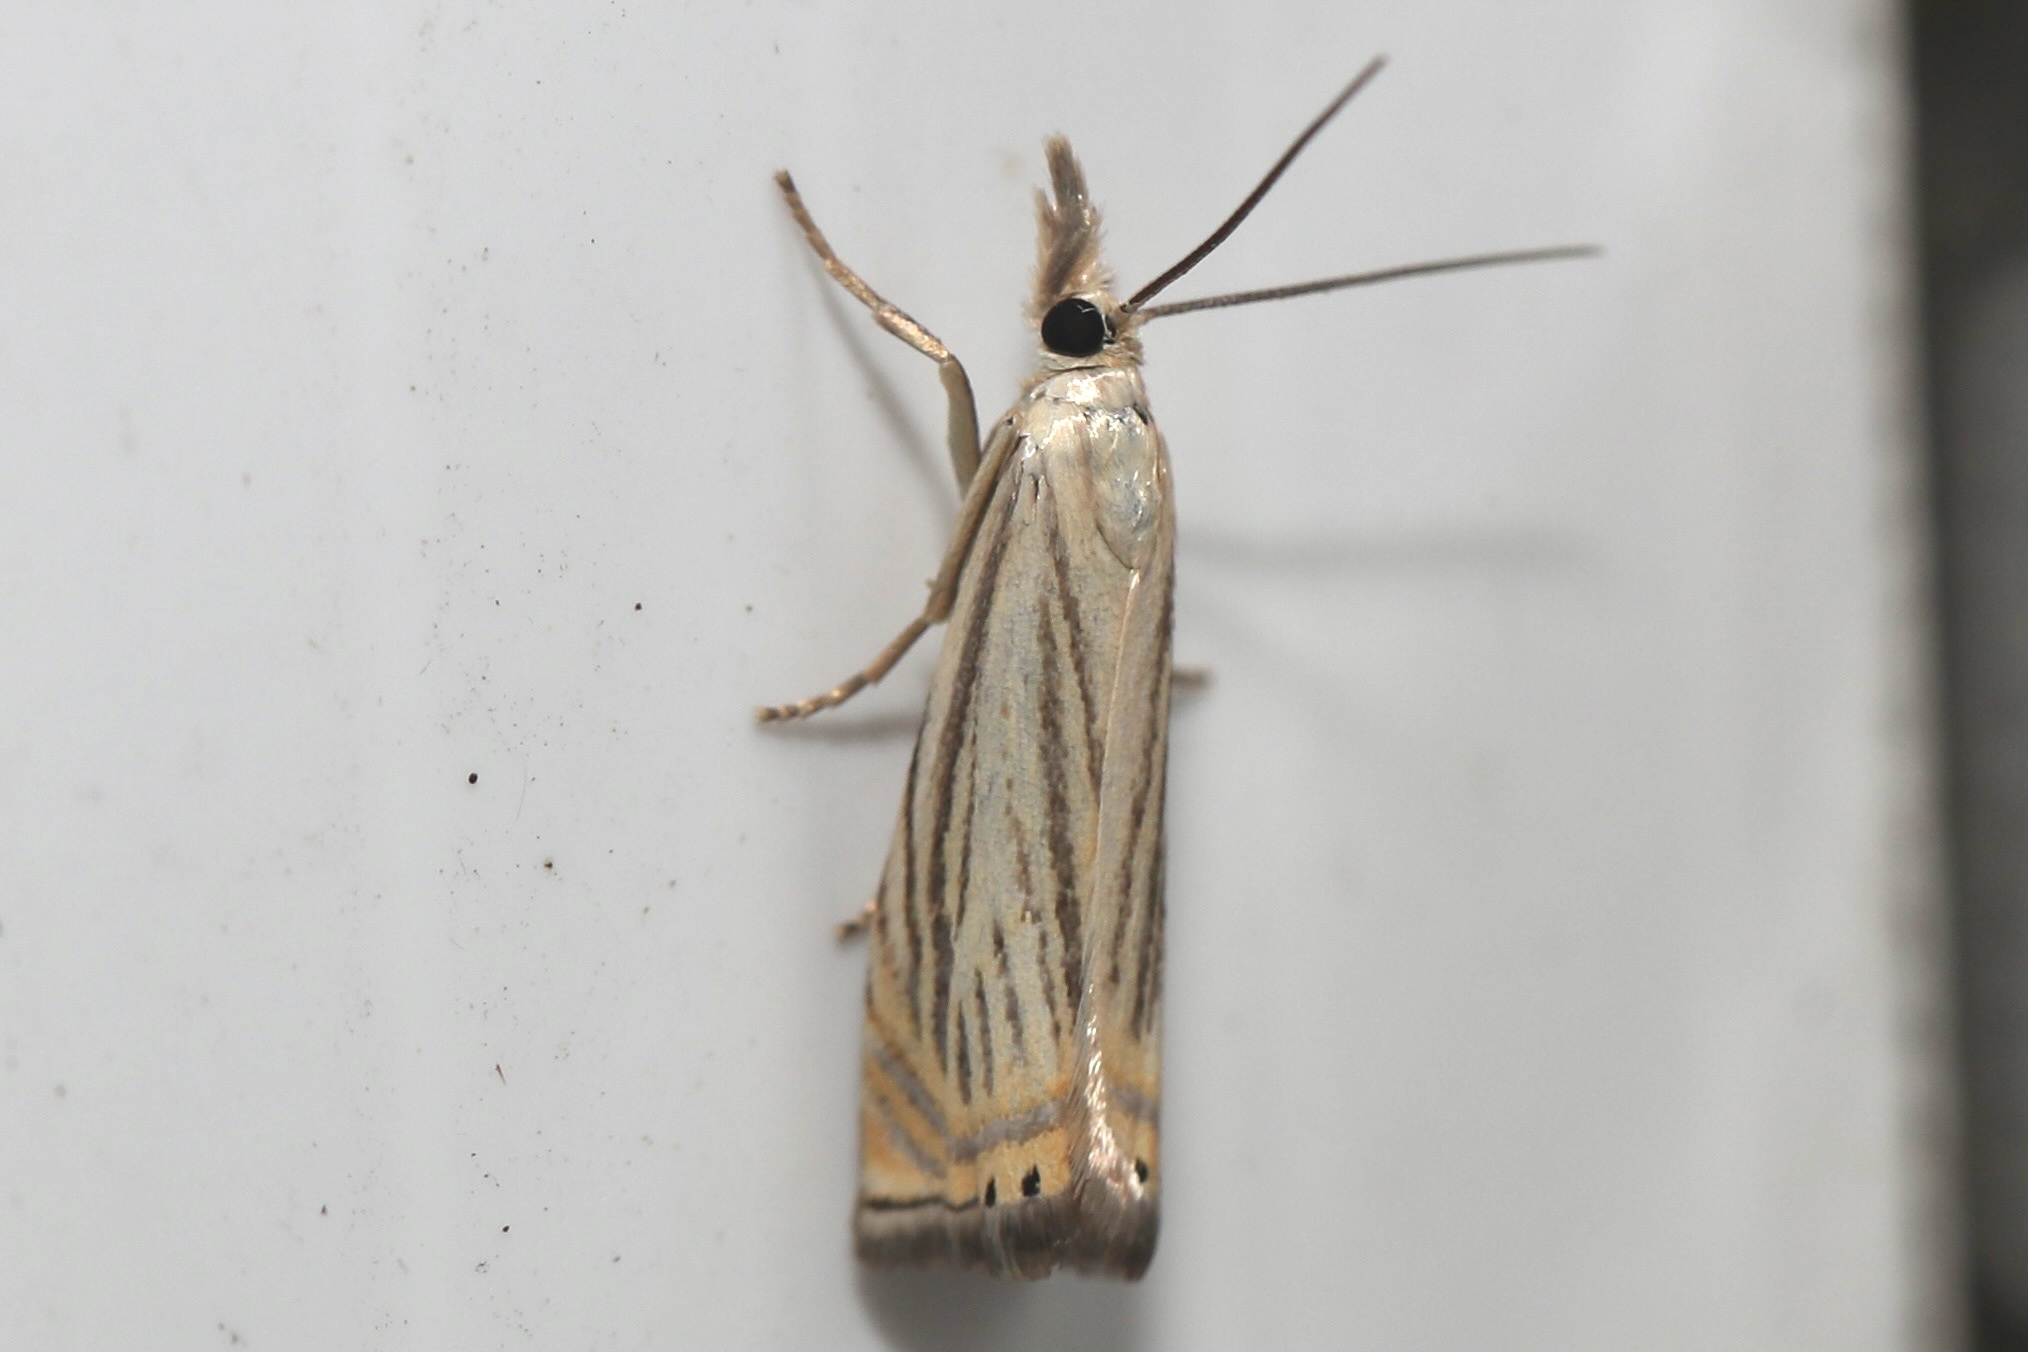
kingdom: Animalia
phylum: Arthropoda
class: Insecta
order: Lepidoptera
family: Crambidae
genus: Chrysoteuchia
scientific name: Chrysoteuchia topiarius
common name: Topiary grass-veneer
